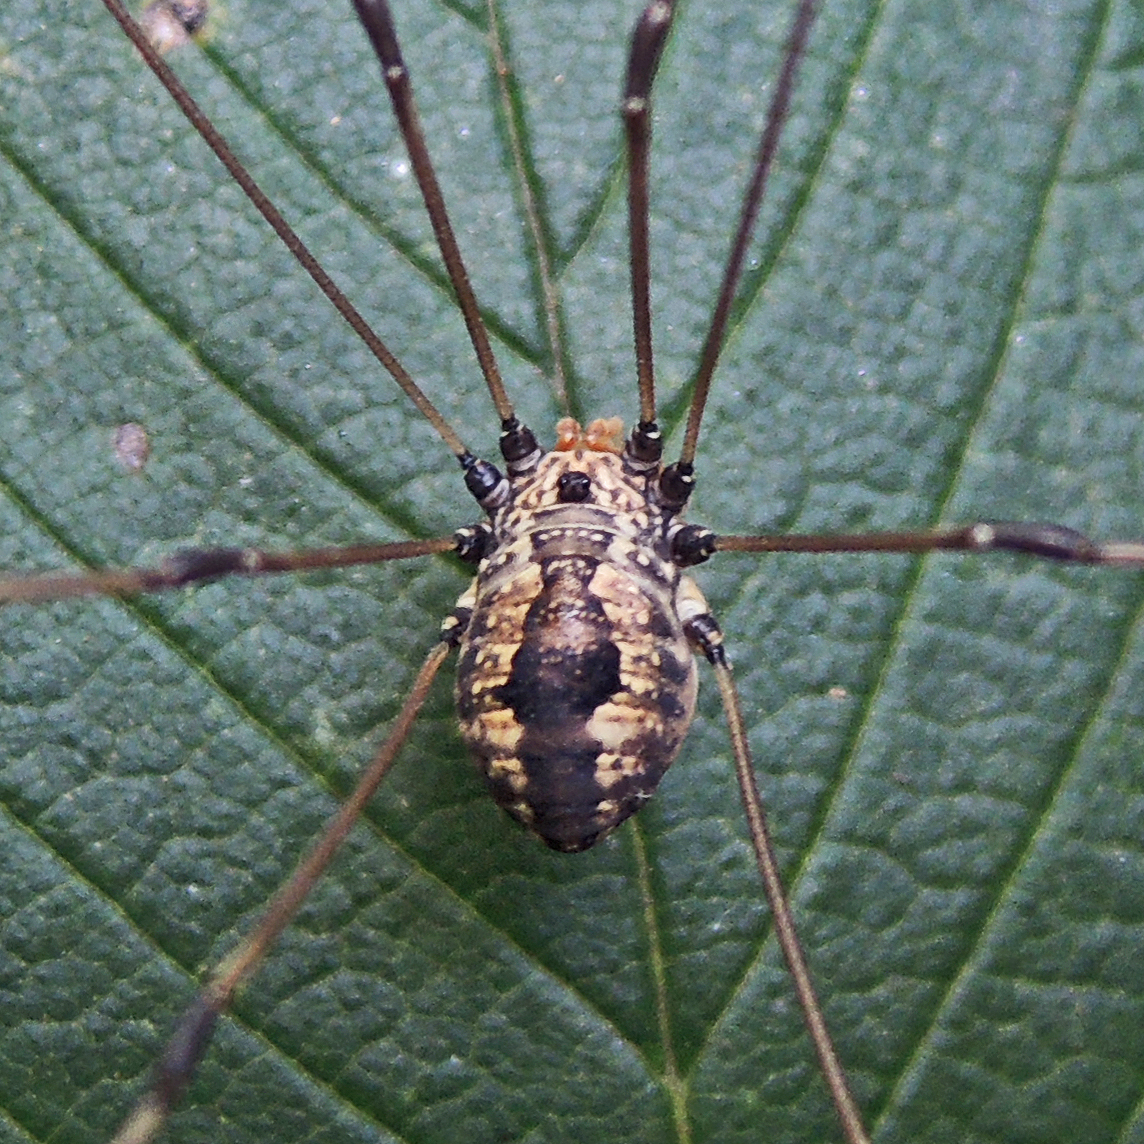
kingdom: Animalia
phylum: Arthropoda
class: Arachnida
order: Opiliones
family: Sclerosomatidae
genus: Leiobunum
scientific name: Leiobunum vittatum
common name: Eastern harvestman
